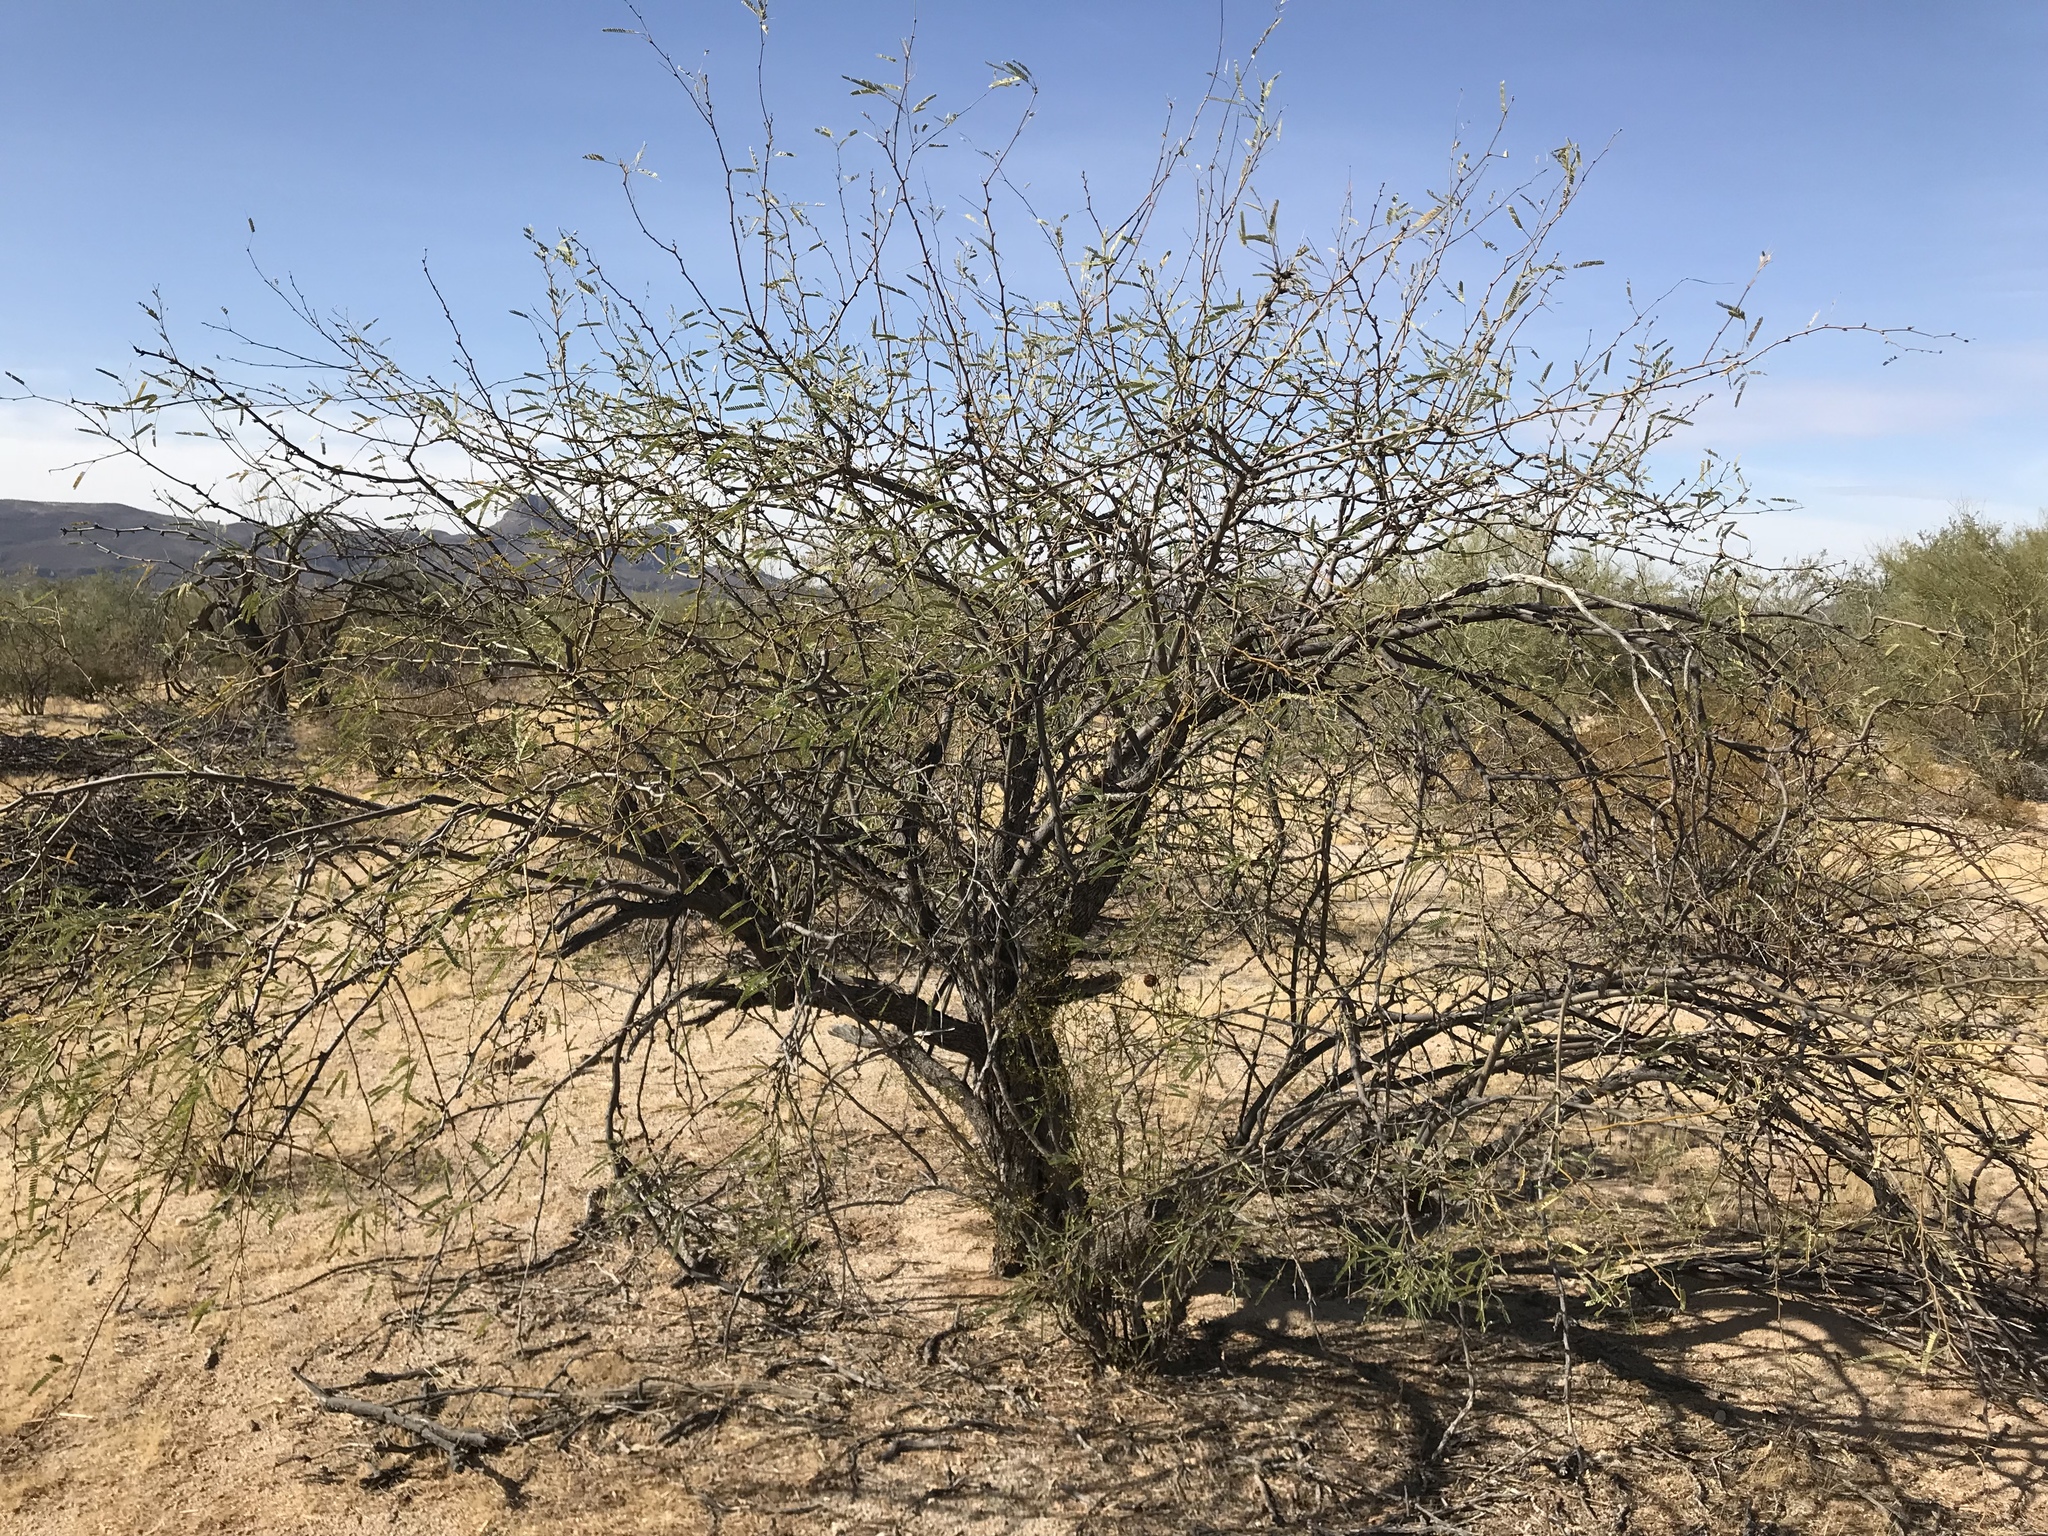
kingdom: Plantae
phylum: Tracheophyta
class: Magnoliopsida
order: Fabales
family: Fabaceae
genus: Prosopis
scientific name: Prosopis velutina
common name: Velvet mesquite
